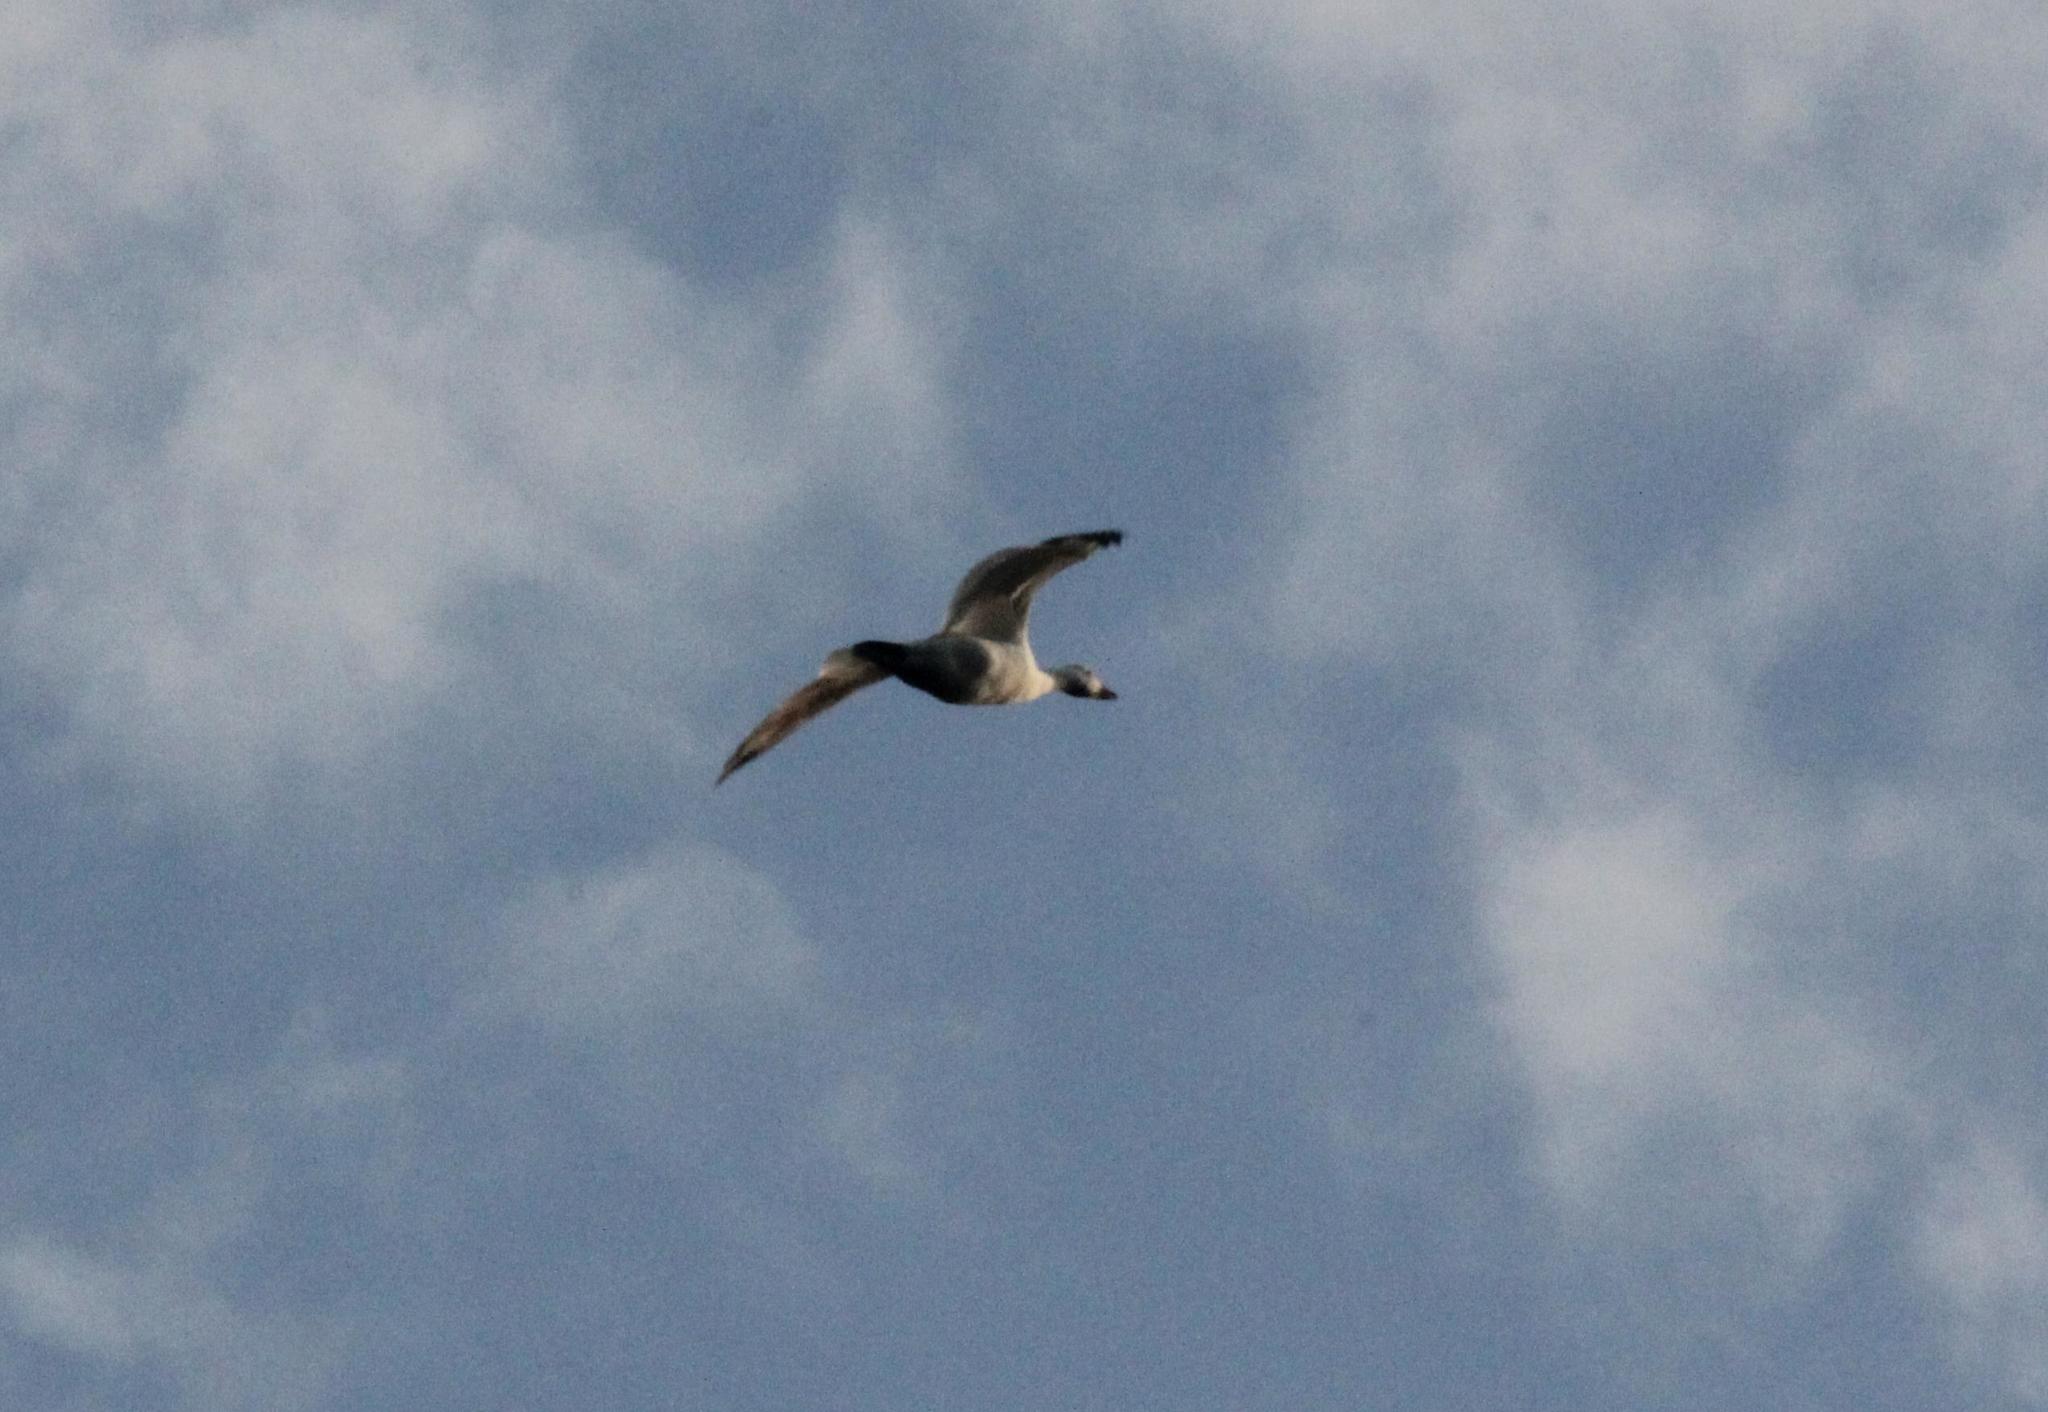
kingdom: Animalia
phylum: Chordata
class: Aves
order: Anseriformes
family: Anatidae
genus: Anser
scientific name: Anser caerulescens
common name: Snow goose
